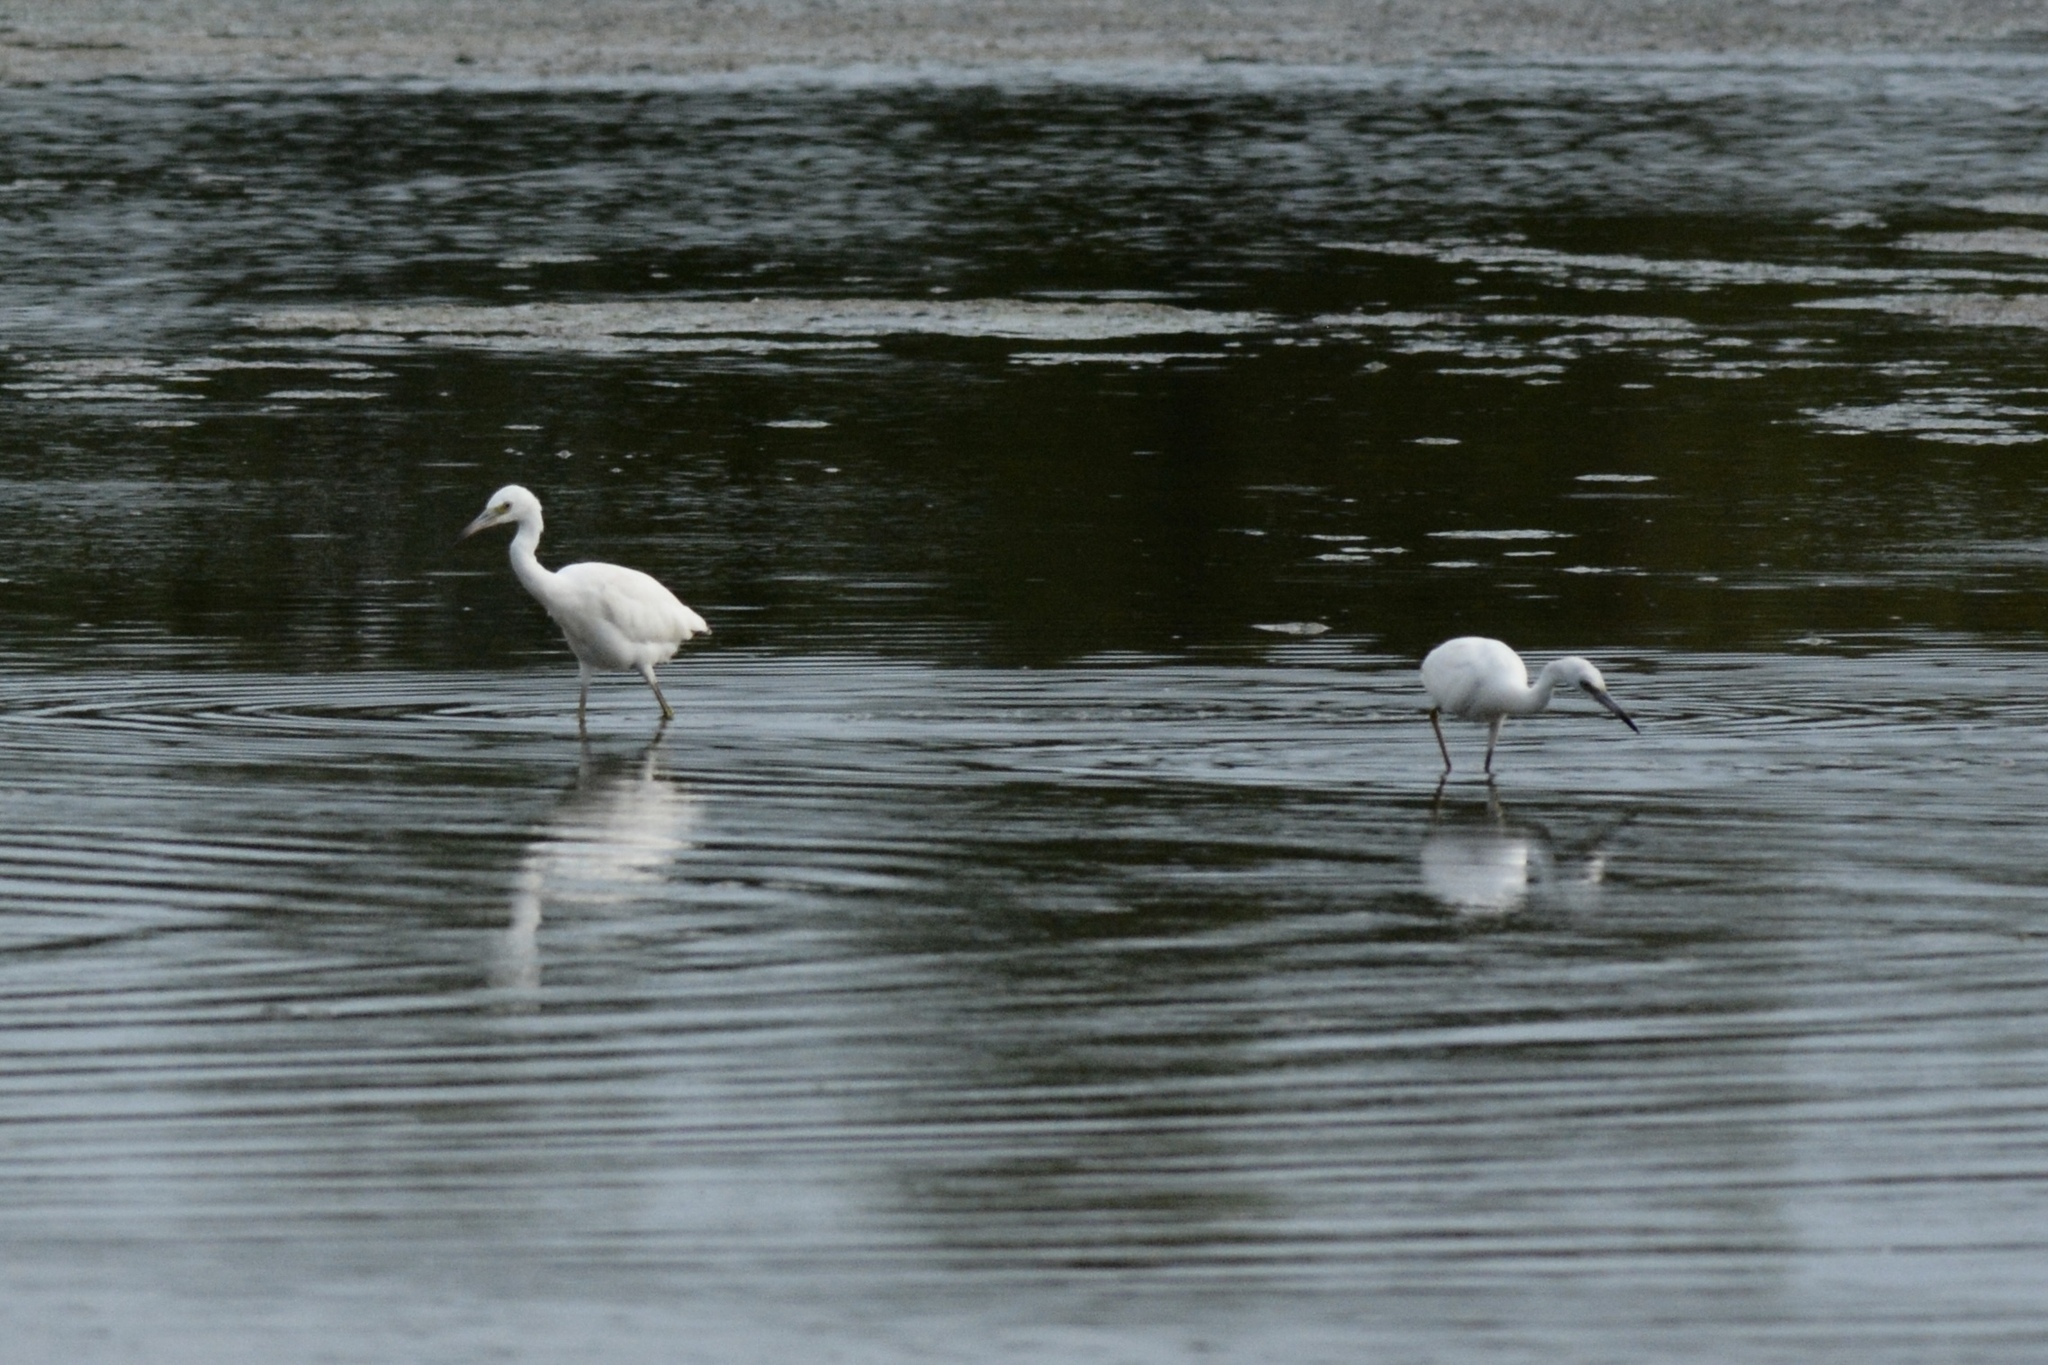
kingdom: Animalia
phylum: Chordata
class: Aves
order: Pelecaniformes
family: Ardeidae
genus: Egretta
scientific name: Egretta caerulea
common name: Little blue heron
